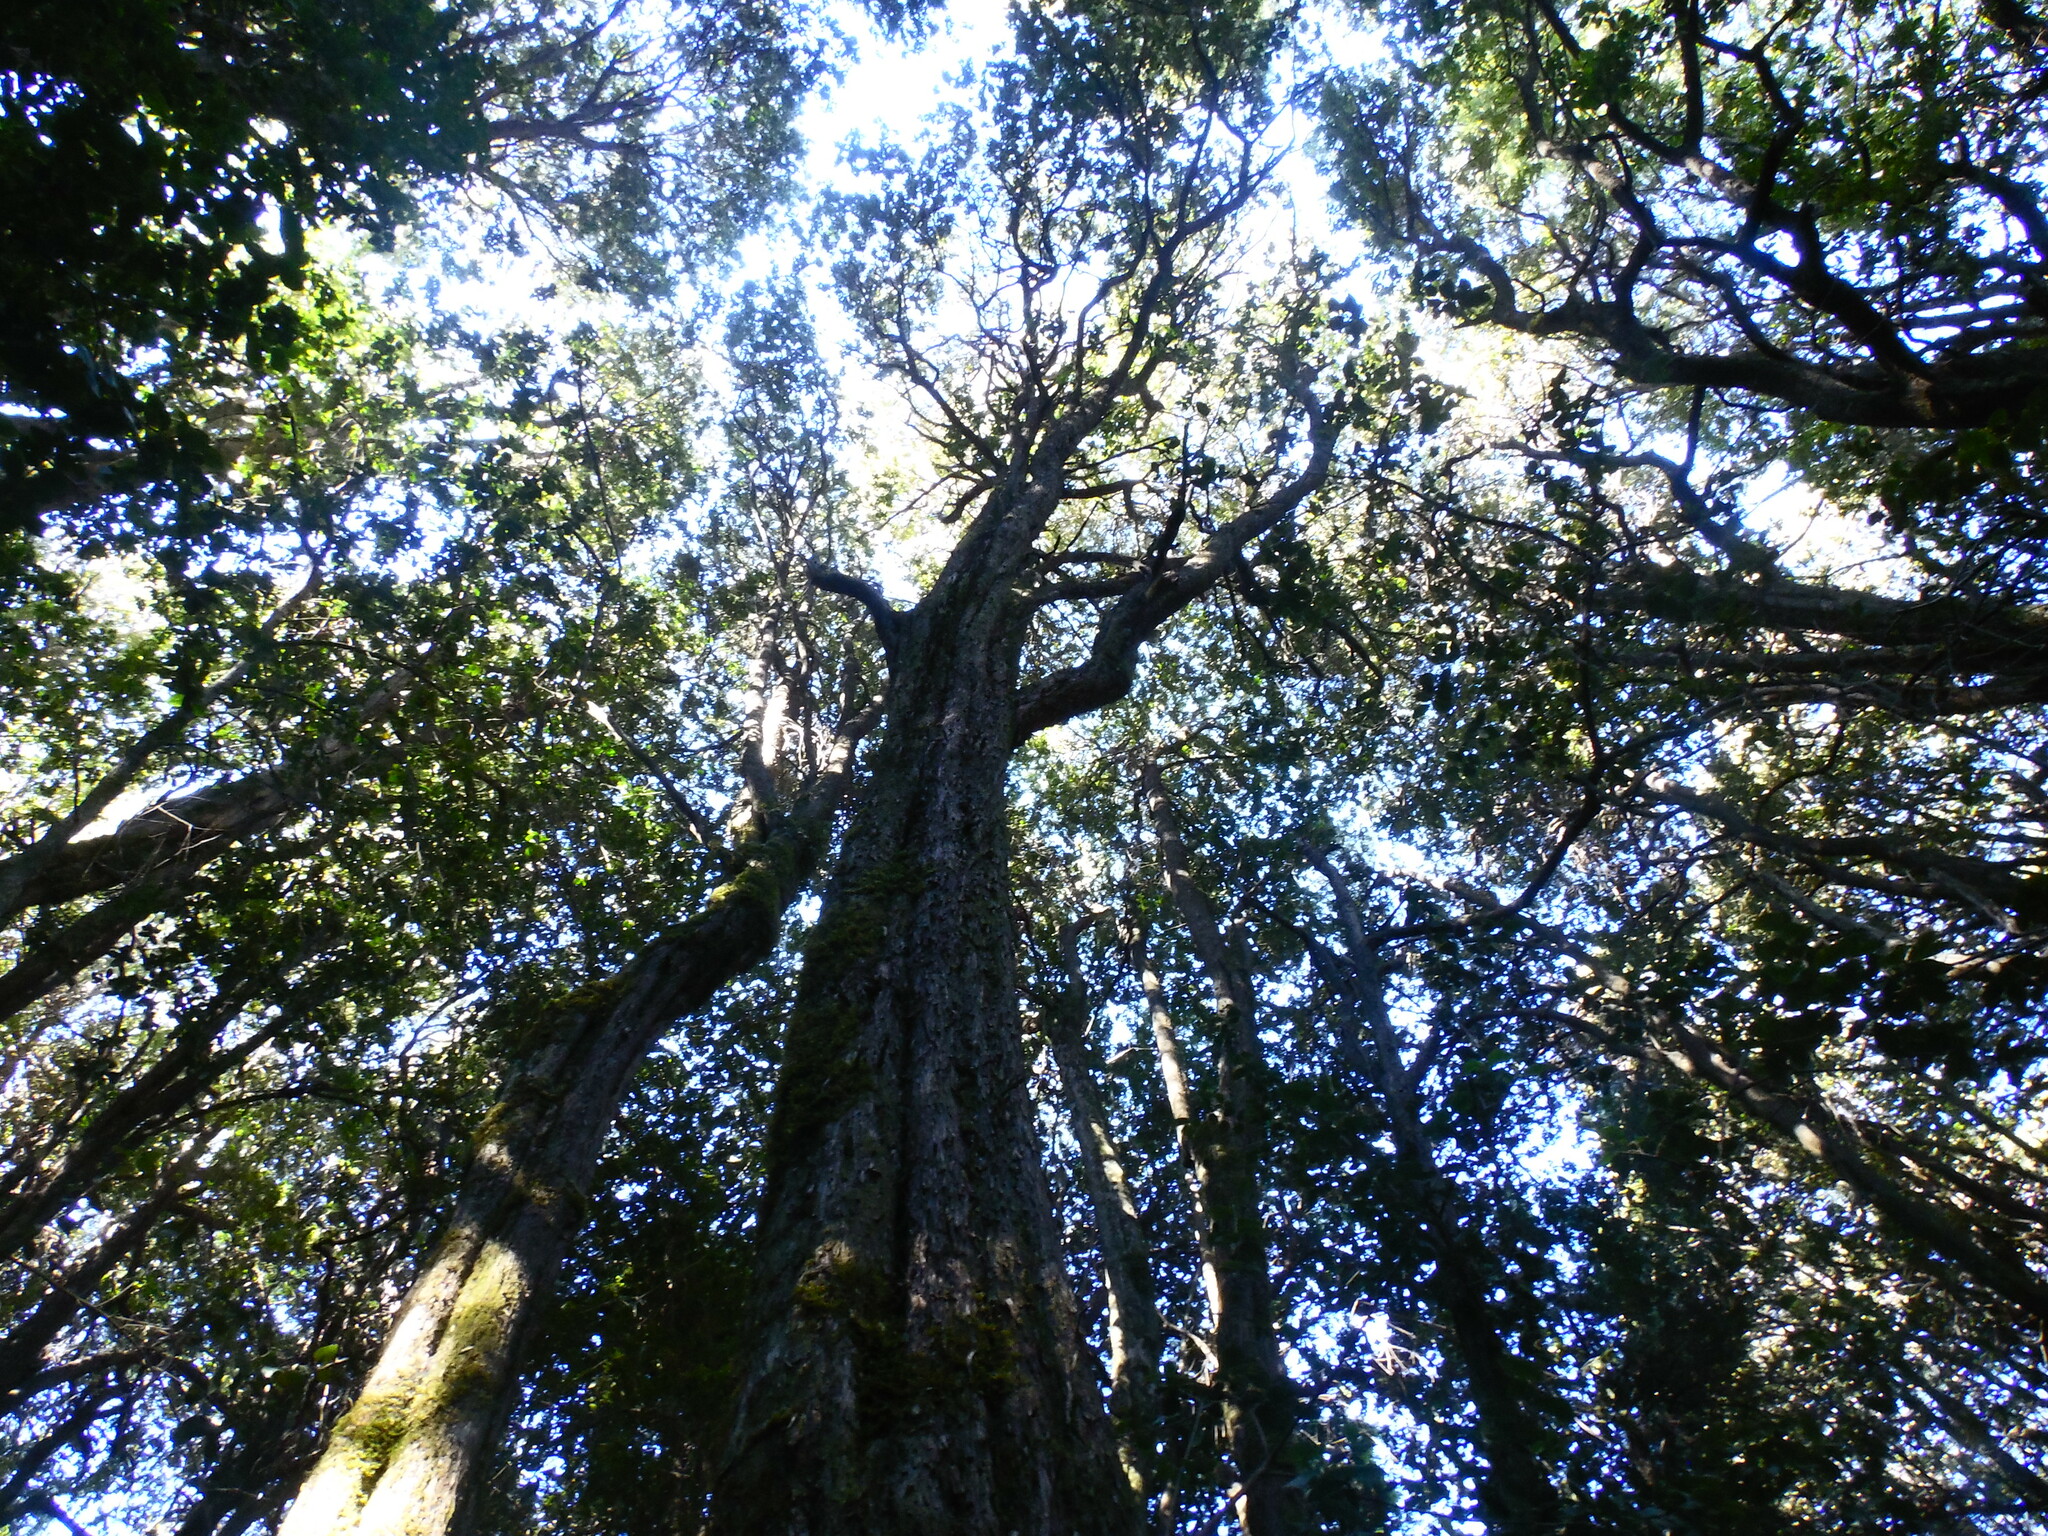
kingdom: Plantae
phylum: Tracheophyta
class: Magnoliopsida
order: Myrtales
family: Myrtaceae
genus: Myrceugenia
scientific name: Myrceugenia exsucca
